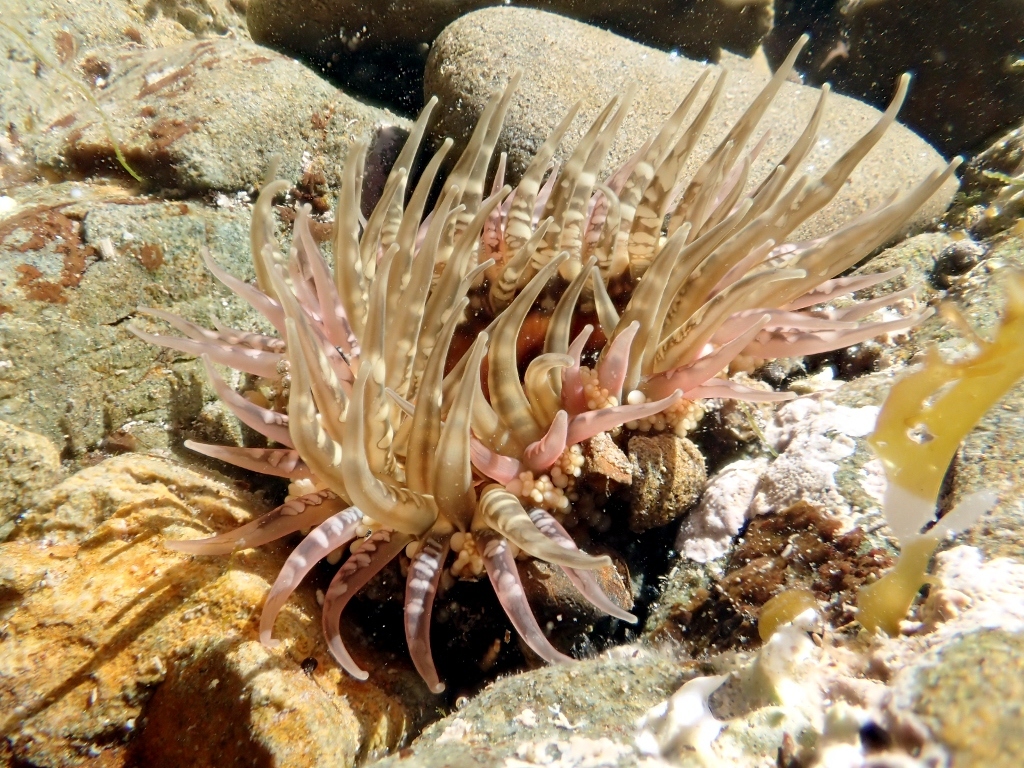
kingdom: Animalia
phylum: Cnidaria
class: Anthozoa
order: Actiniaria
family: Actiniidae
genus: Oulactis
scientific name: Oulactis muscosa
